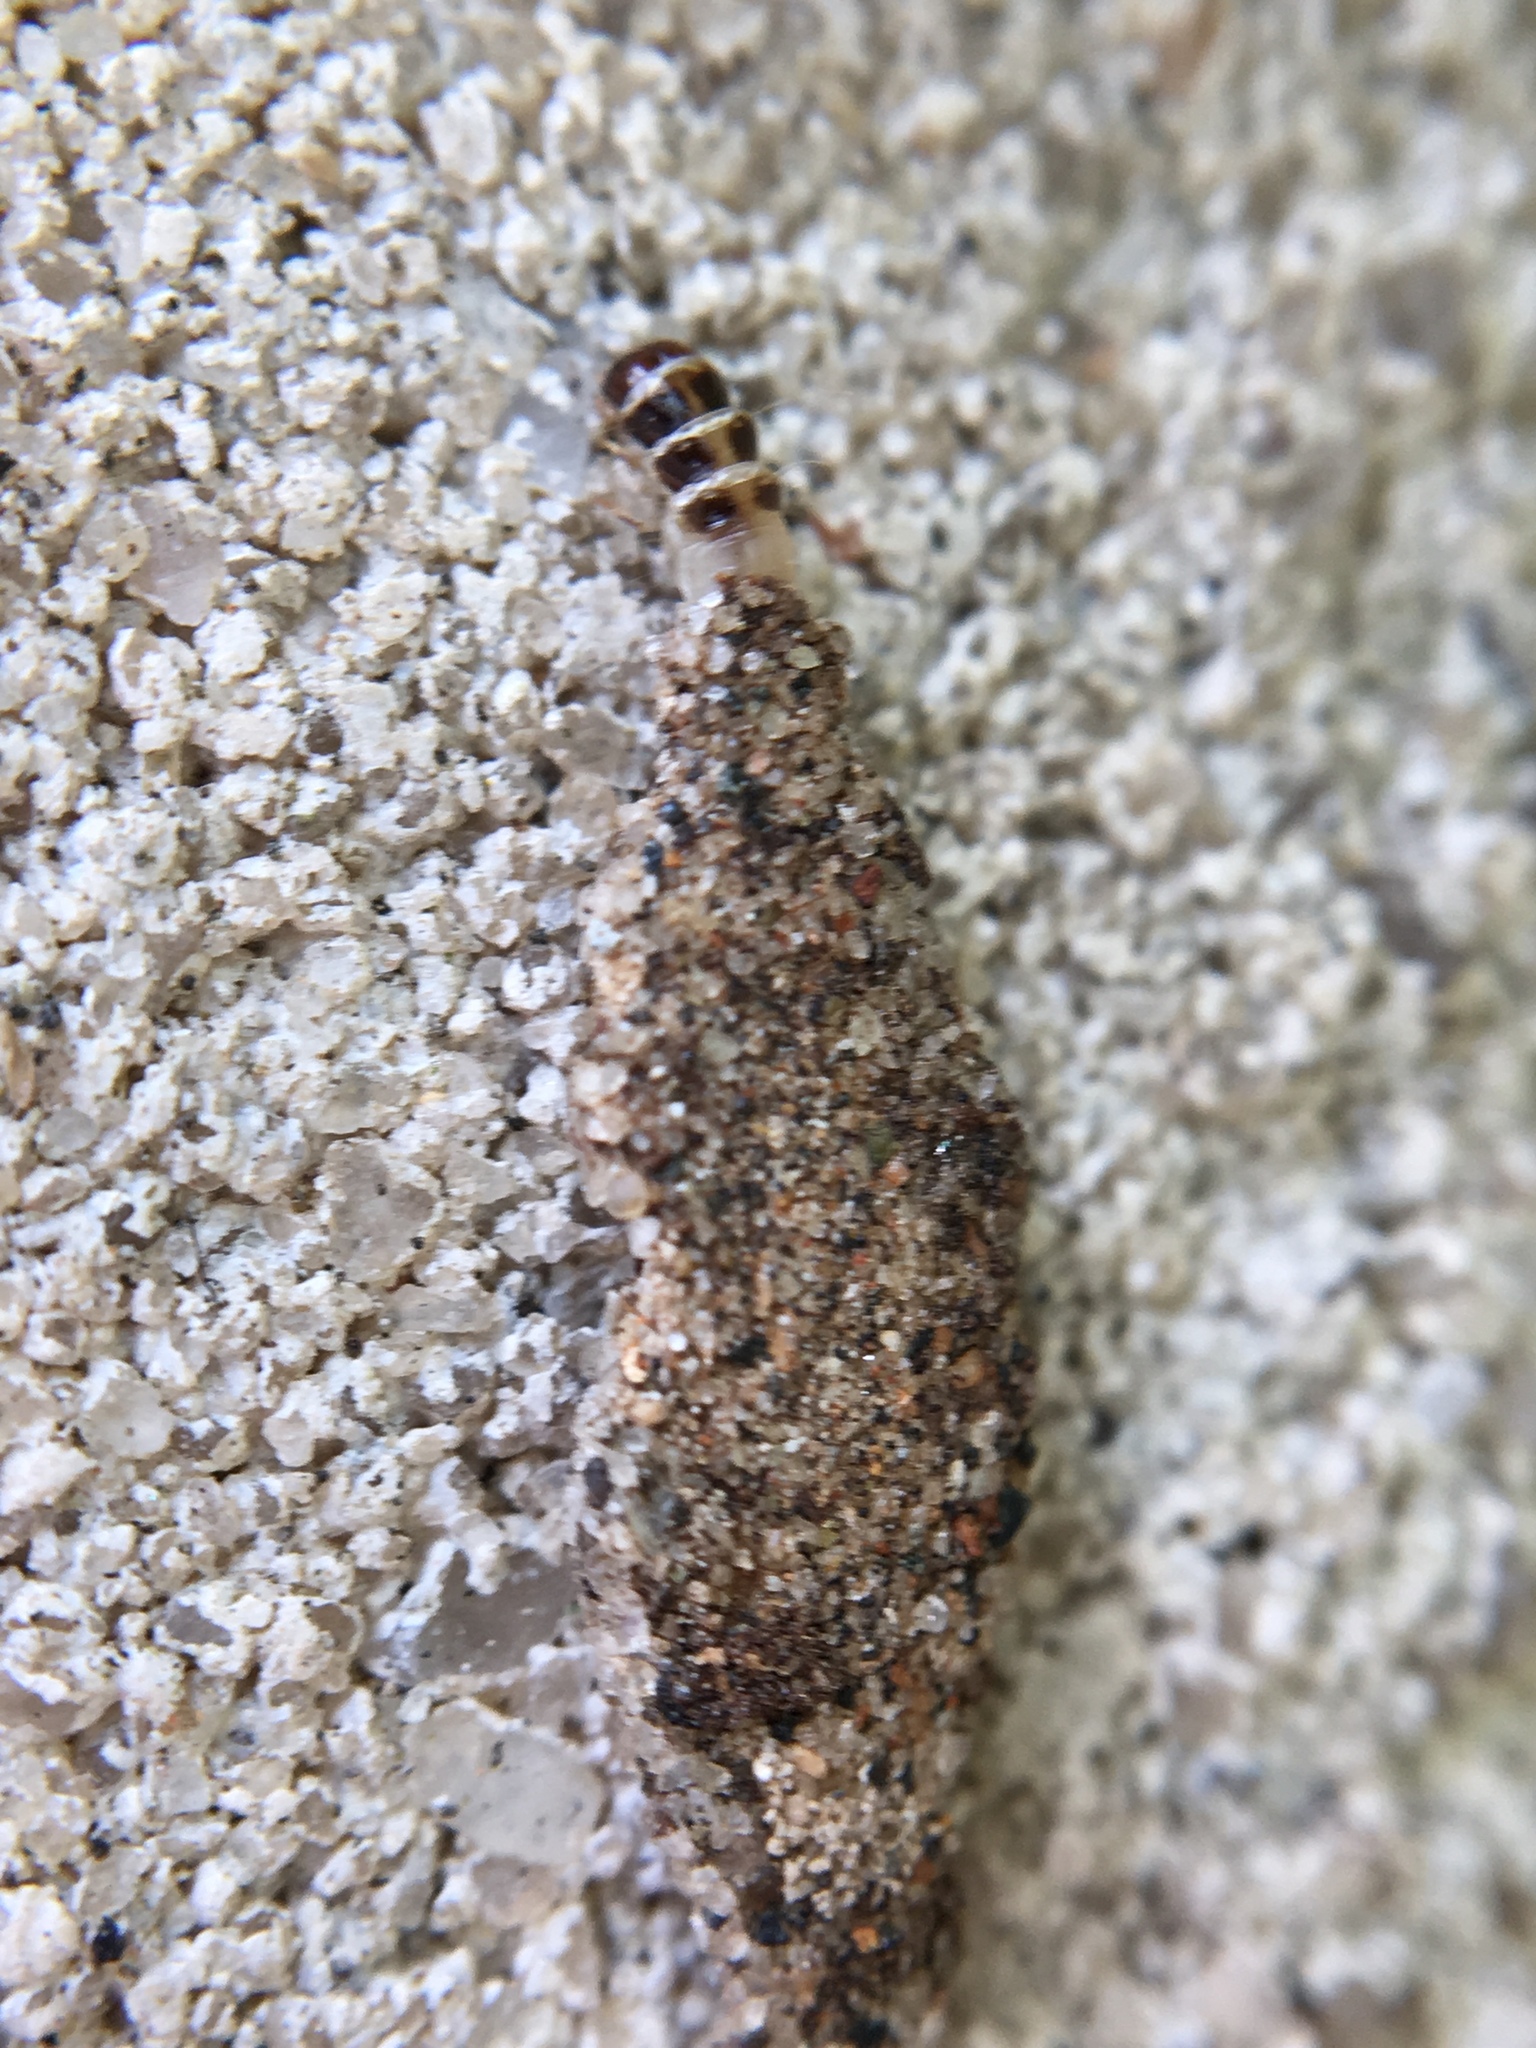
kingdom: Animalia
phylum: Arthropoda
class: Insecta
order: Lepidoptera
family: Tineidae
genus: Phereoeca
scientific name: Phereoeca uterella
